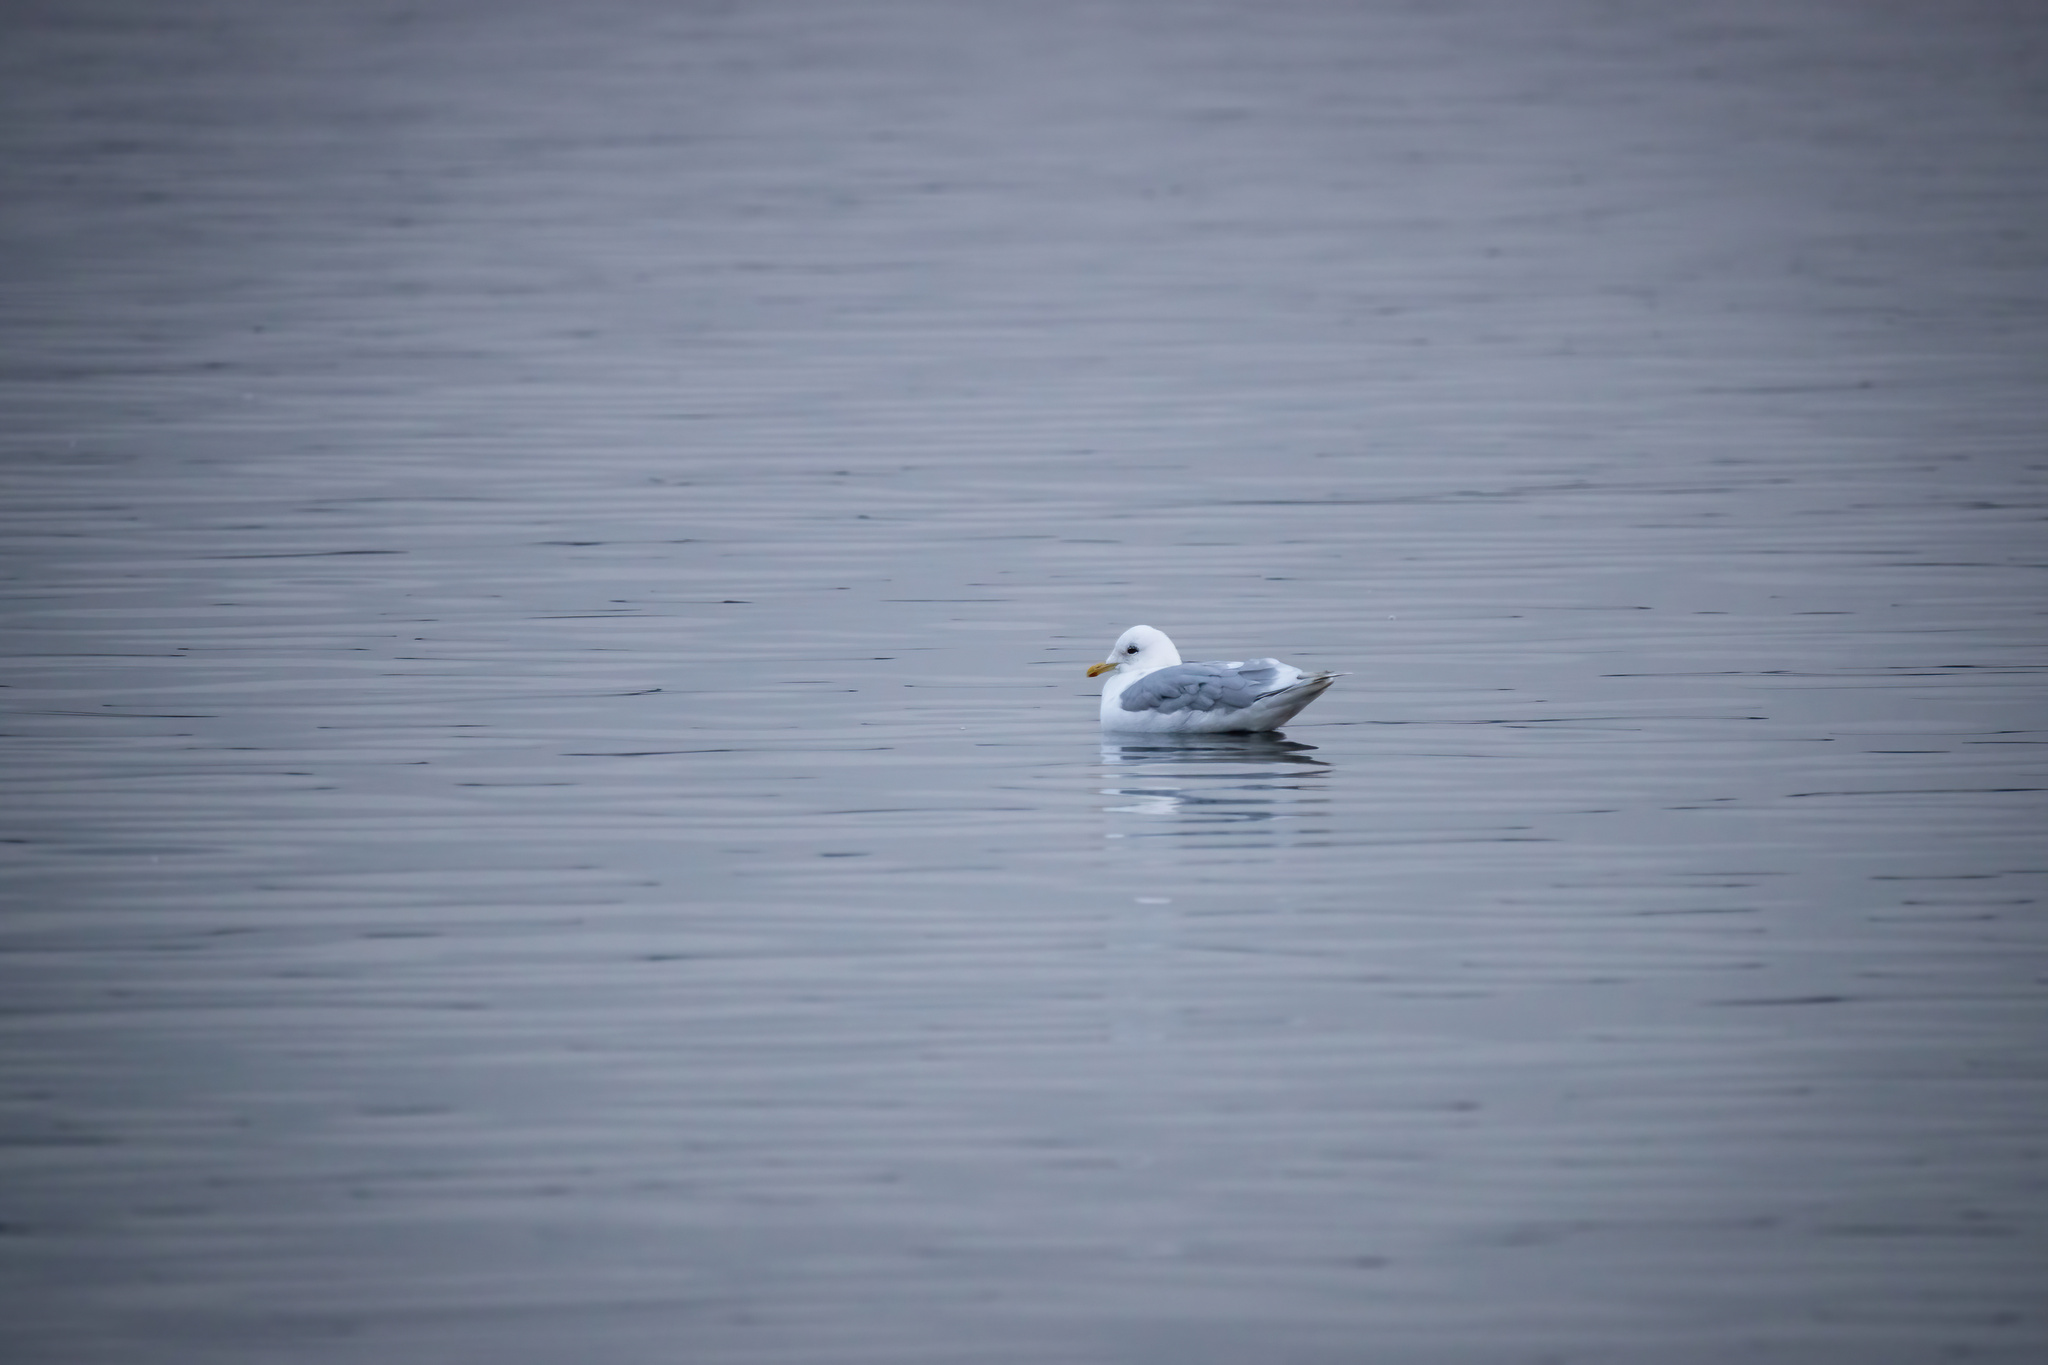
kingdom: Animalia
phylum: Chordata
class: Aves
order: Charadriiformes
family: Laridae
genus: Larus
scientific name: Larus glaucoides
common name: Iceland gull
